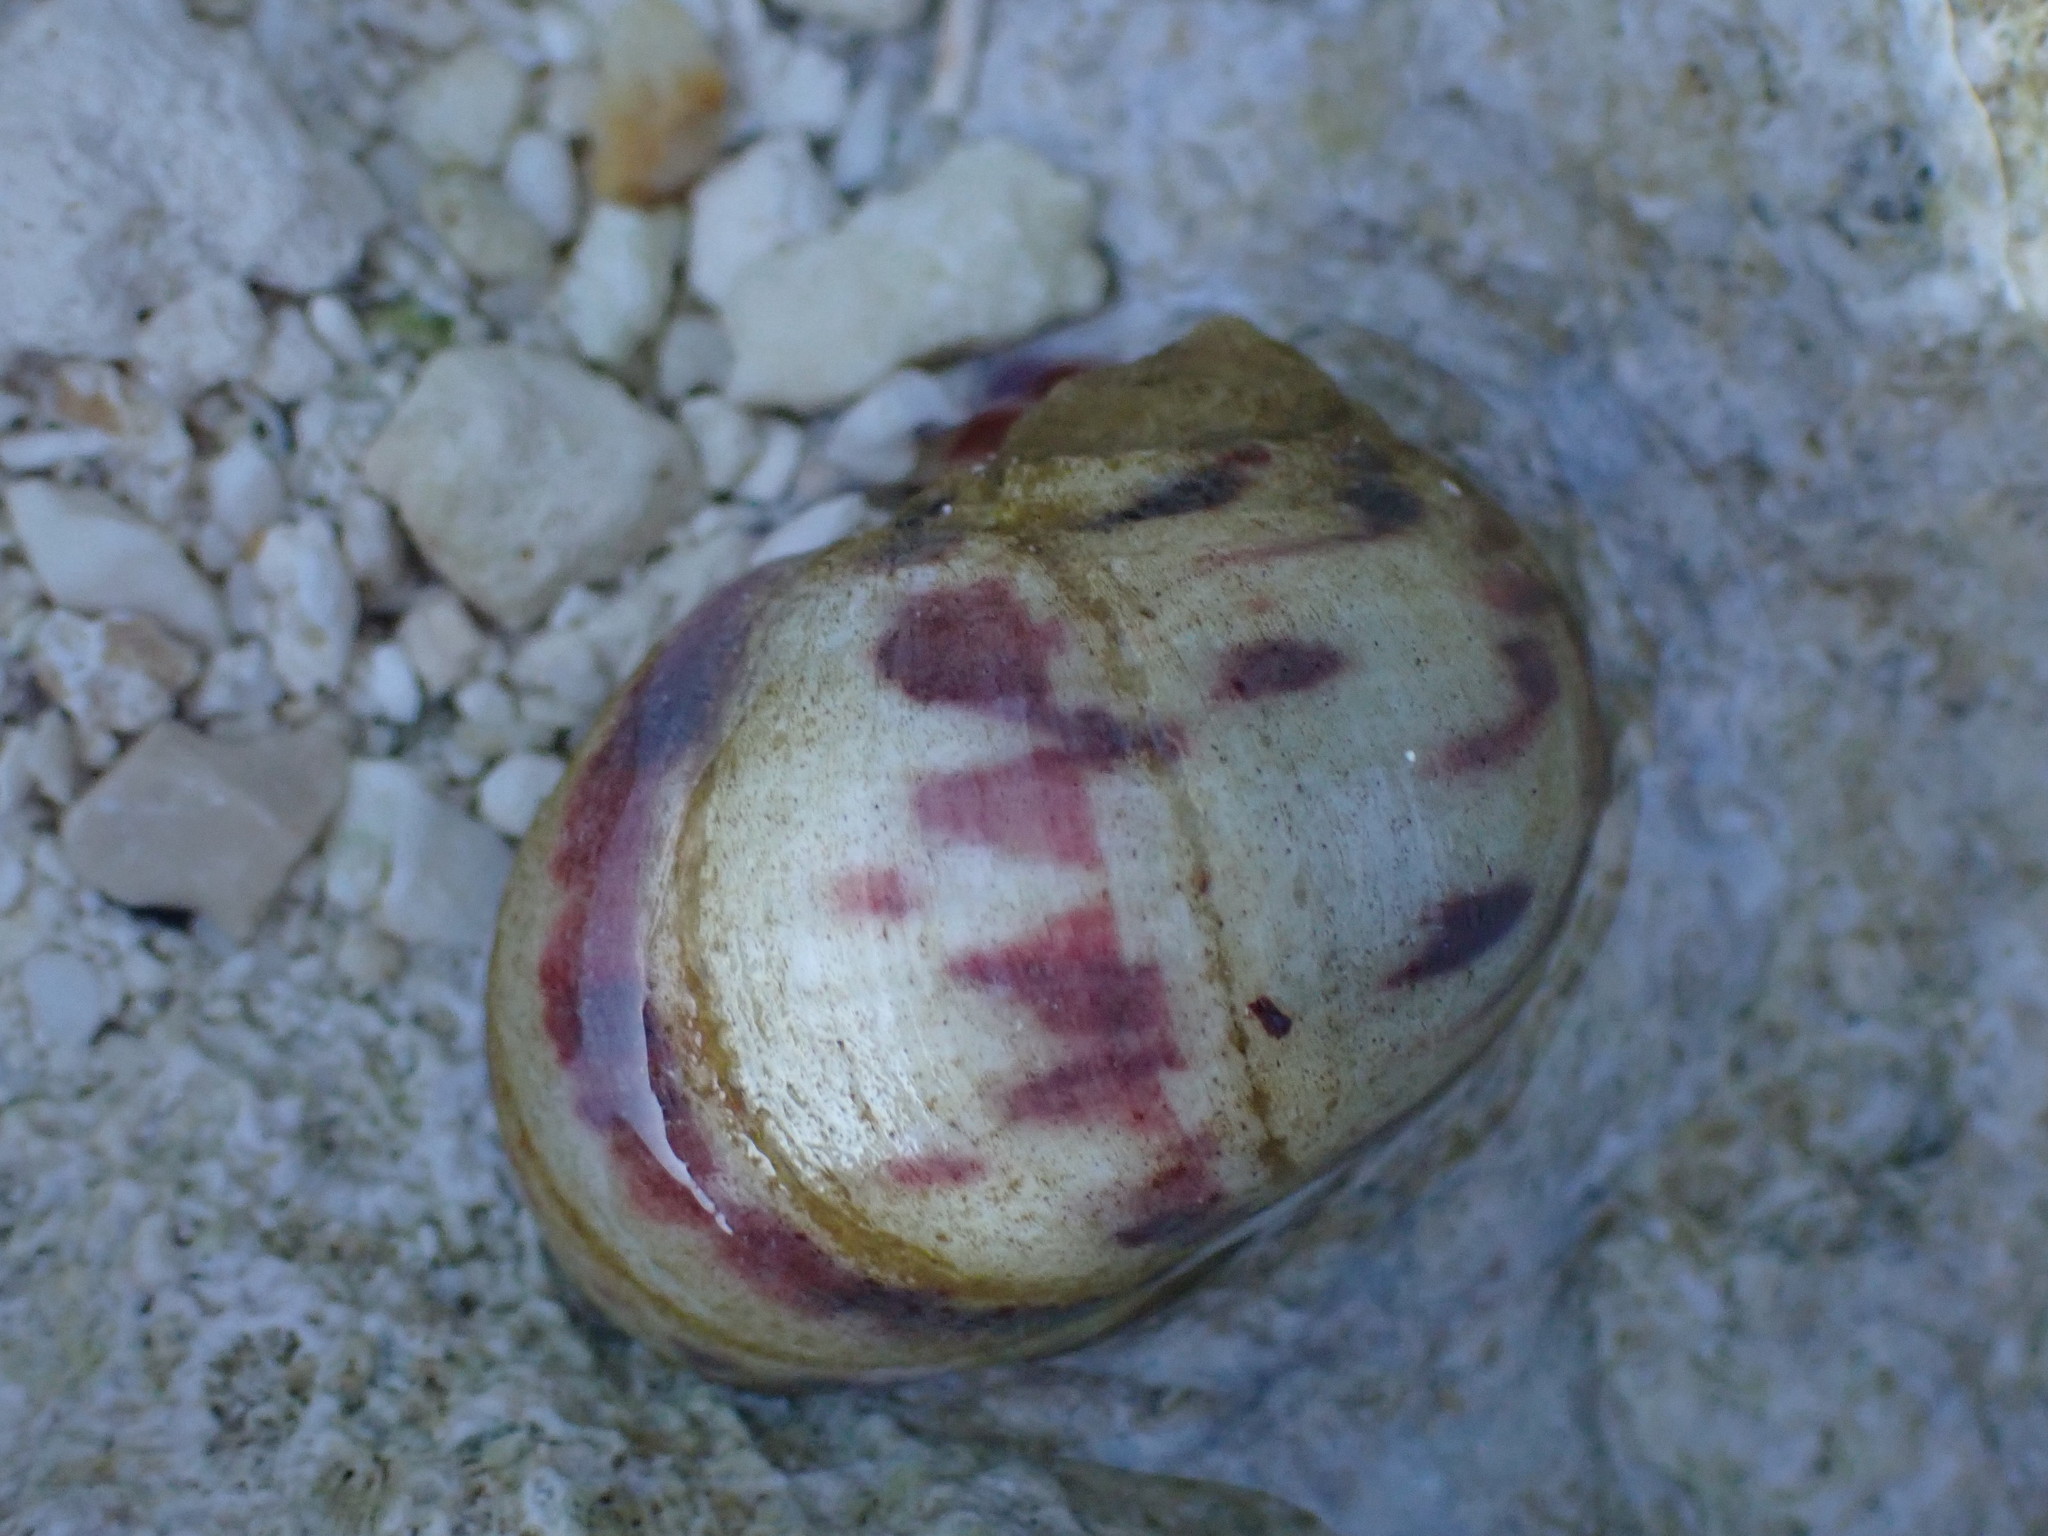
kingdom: Animalia
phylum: Mollusca
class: Gastropoda
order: Cycloneritida
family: Neritidae
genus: Nerita
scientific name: Nerita peloronta
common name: Bleeding tooth
